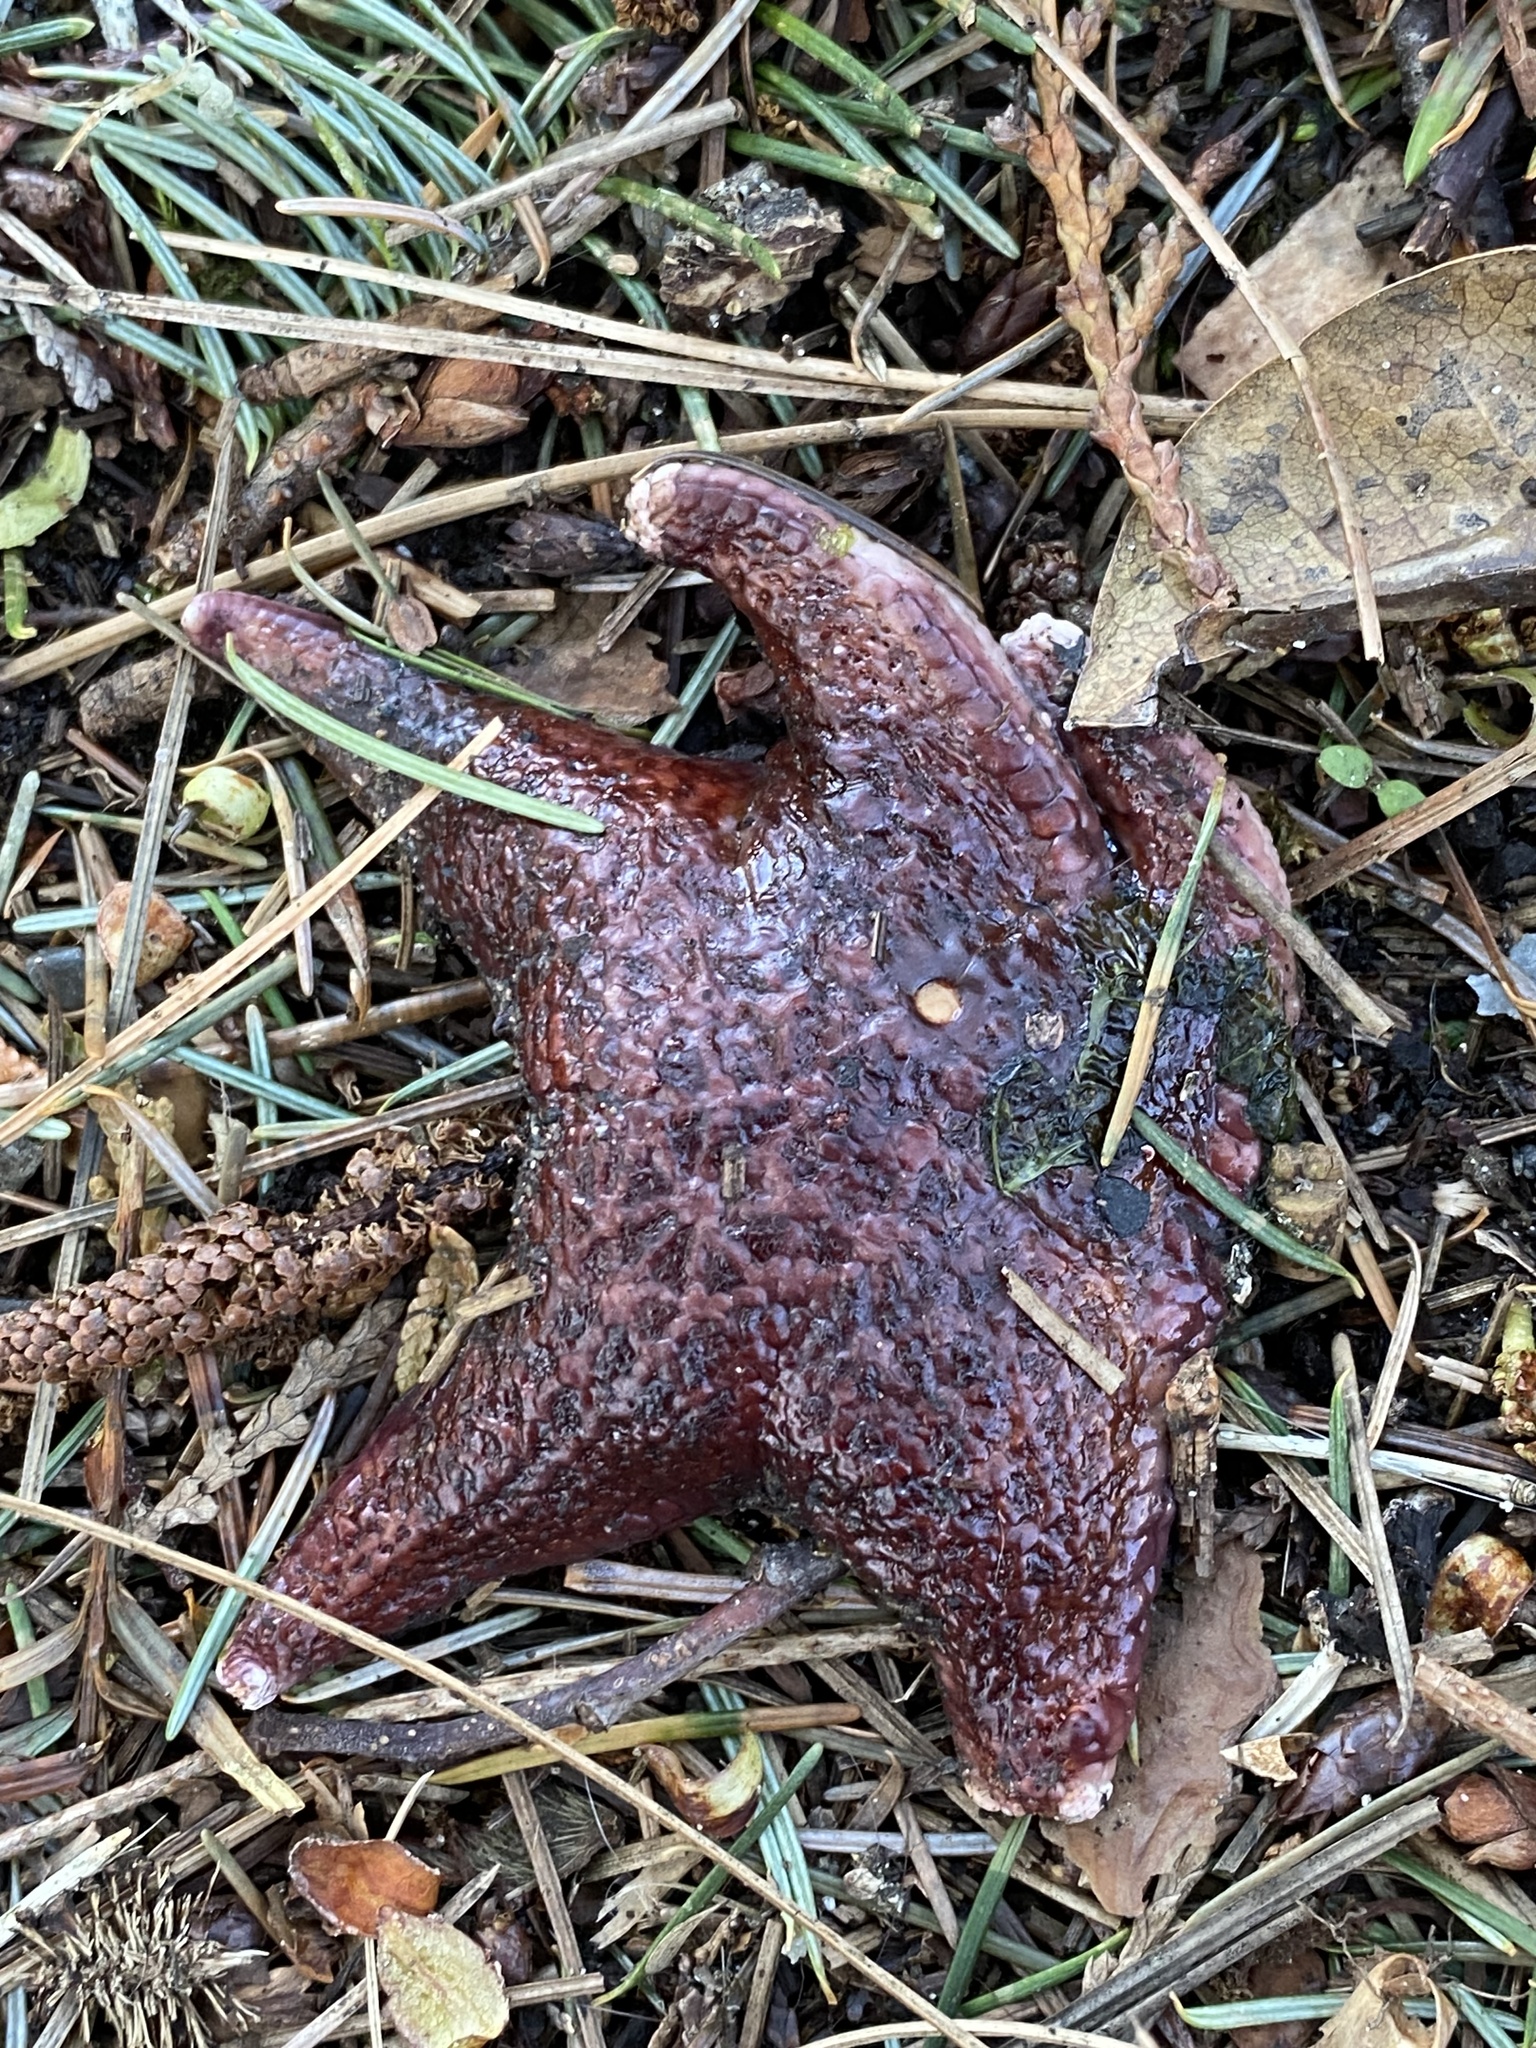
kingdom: Animalia
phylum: Echinodermata
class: Asteroidea
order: Valvatida
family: Asteropseidae
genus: Dermasterias
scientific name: Dermasterias imbricata
